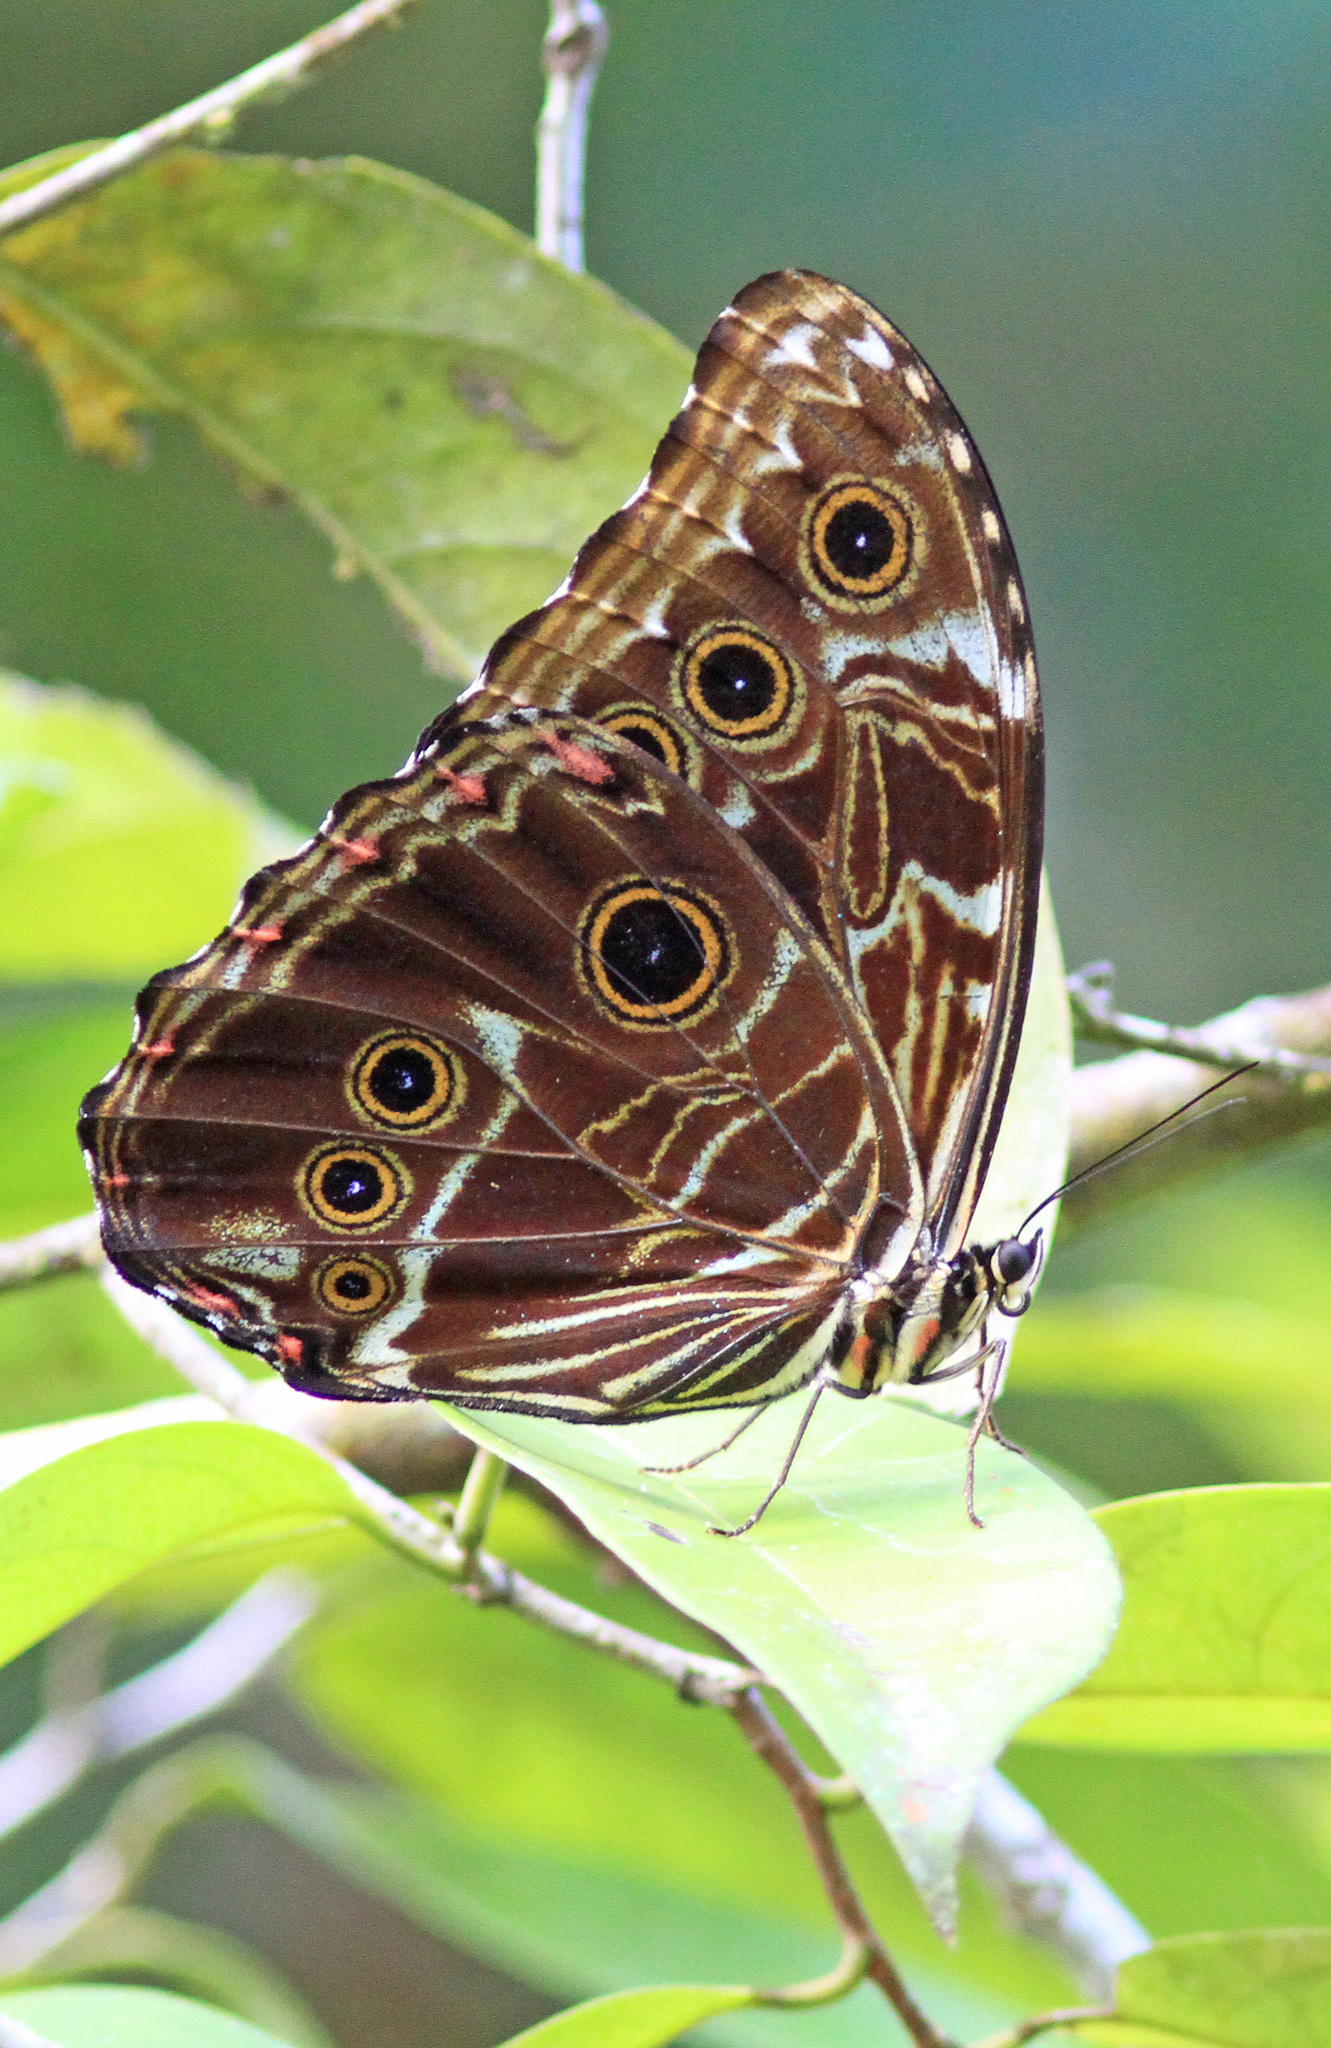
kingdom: Animalia
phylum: Arthropoda
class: Insecta
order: Lepidoptera
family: Nymphalidae
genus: Morpho
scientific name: Morpho deidamia
